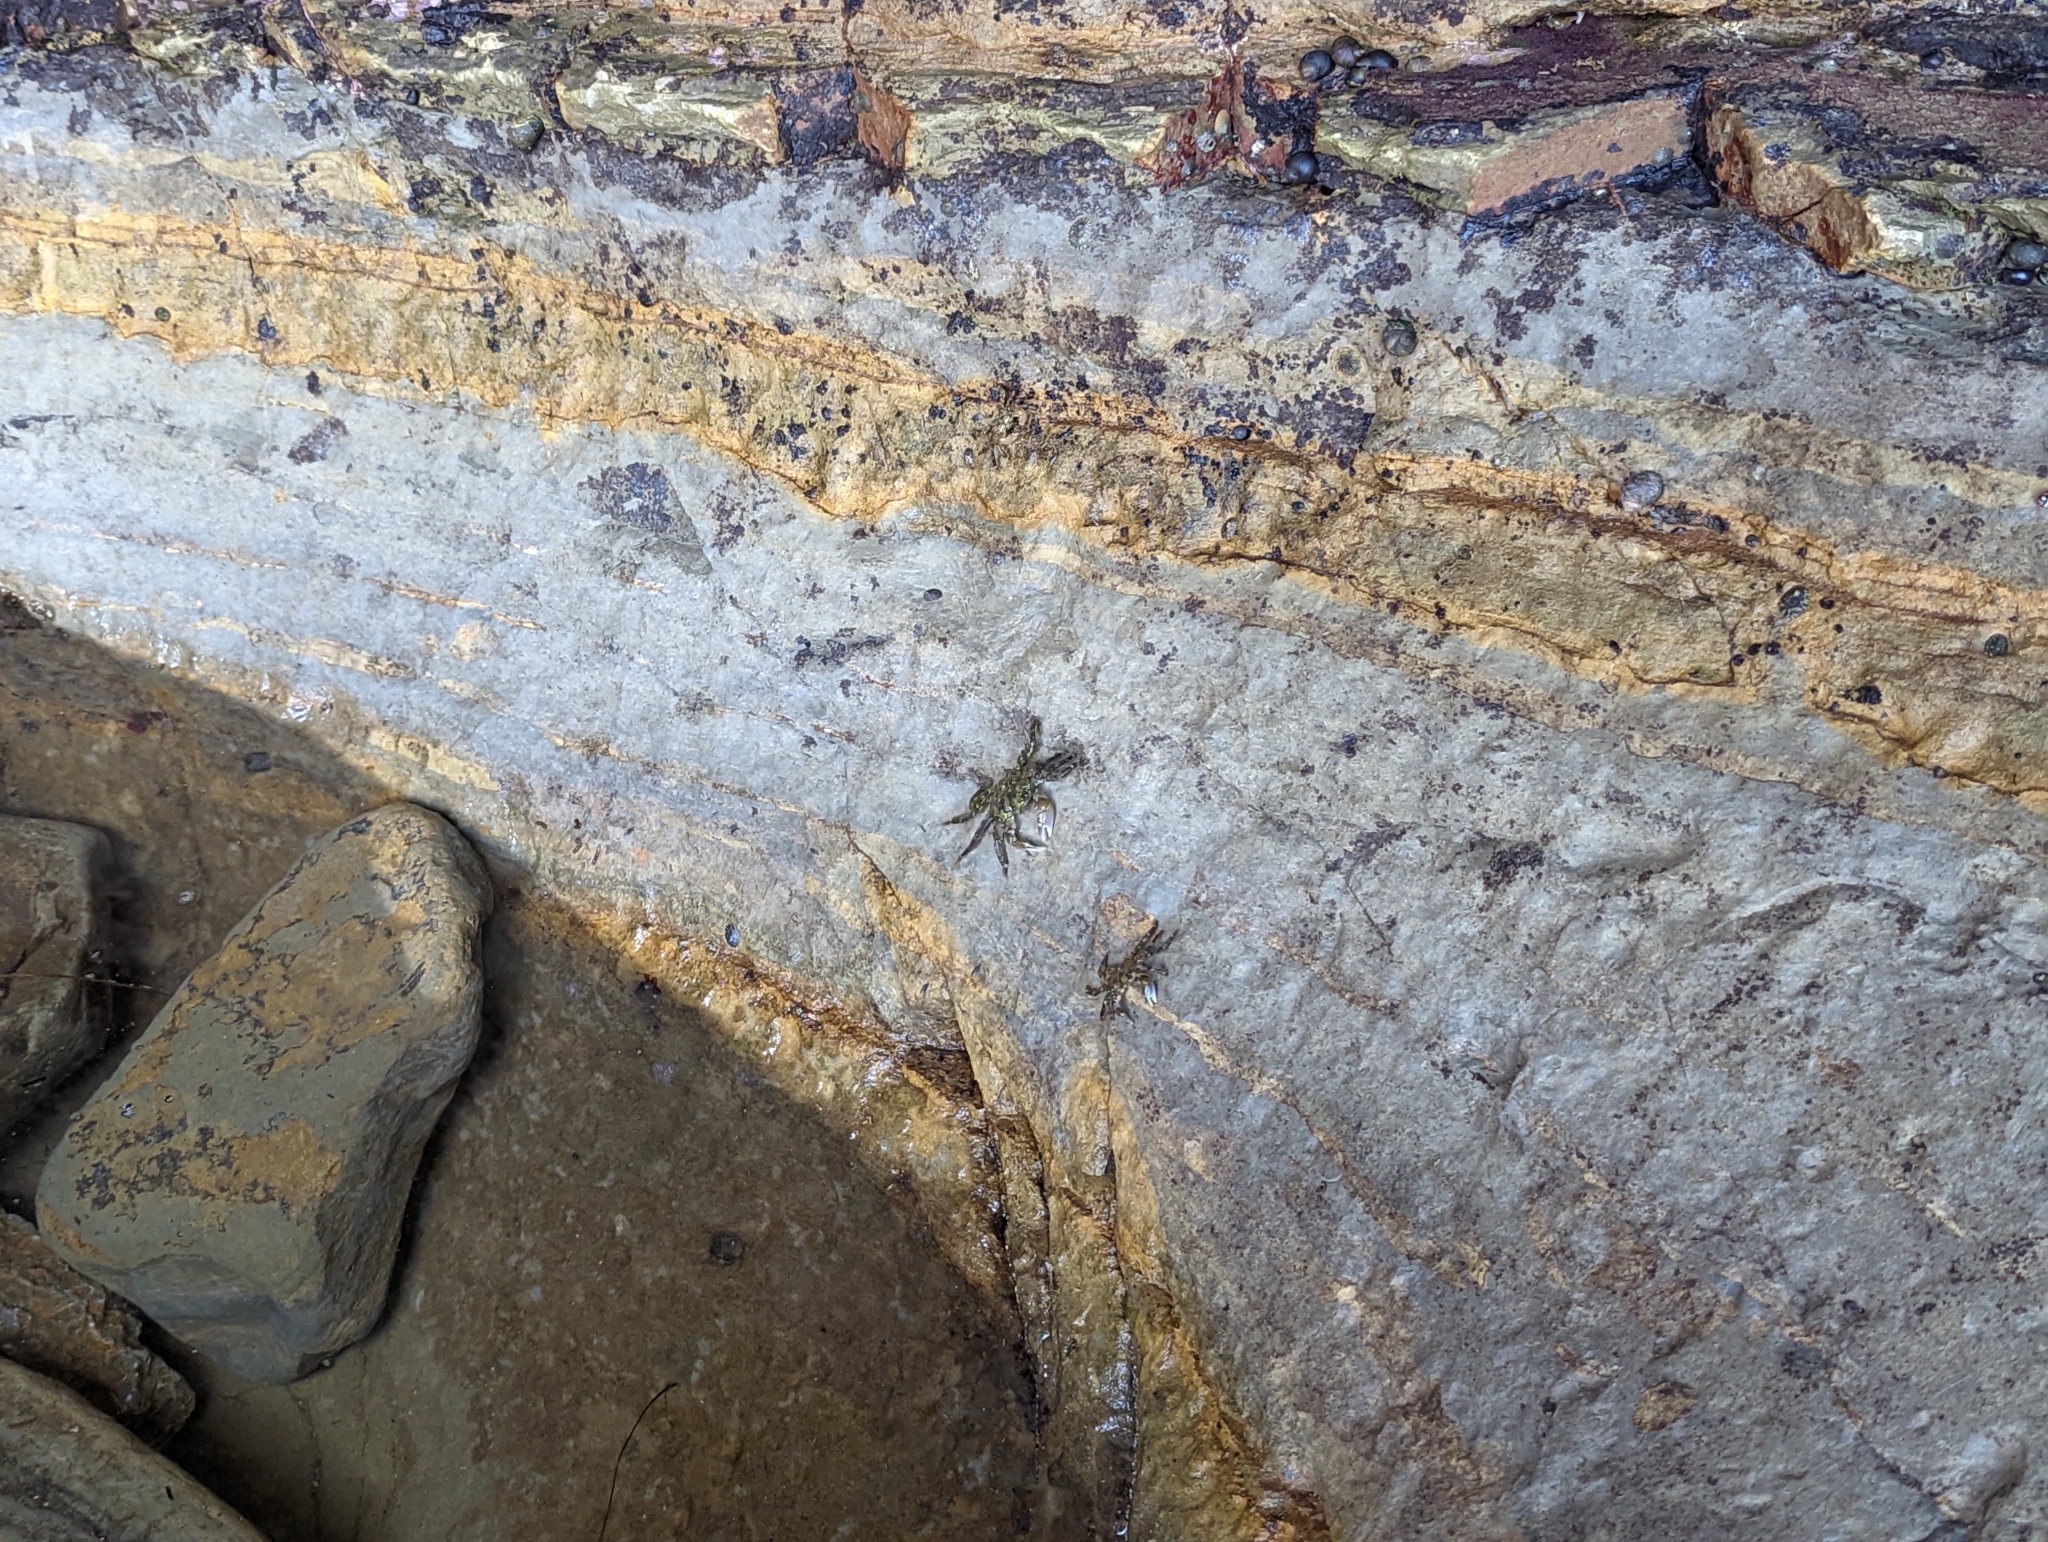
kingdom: Animalia
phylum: Arthropoda
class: Malacostraca
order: Decapoda
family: Grapsidae
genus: Pachygrapsus
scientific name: Pachygrapsus crassipes
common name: Striped shore crab
